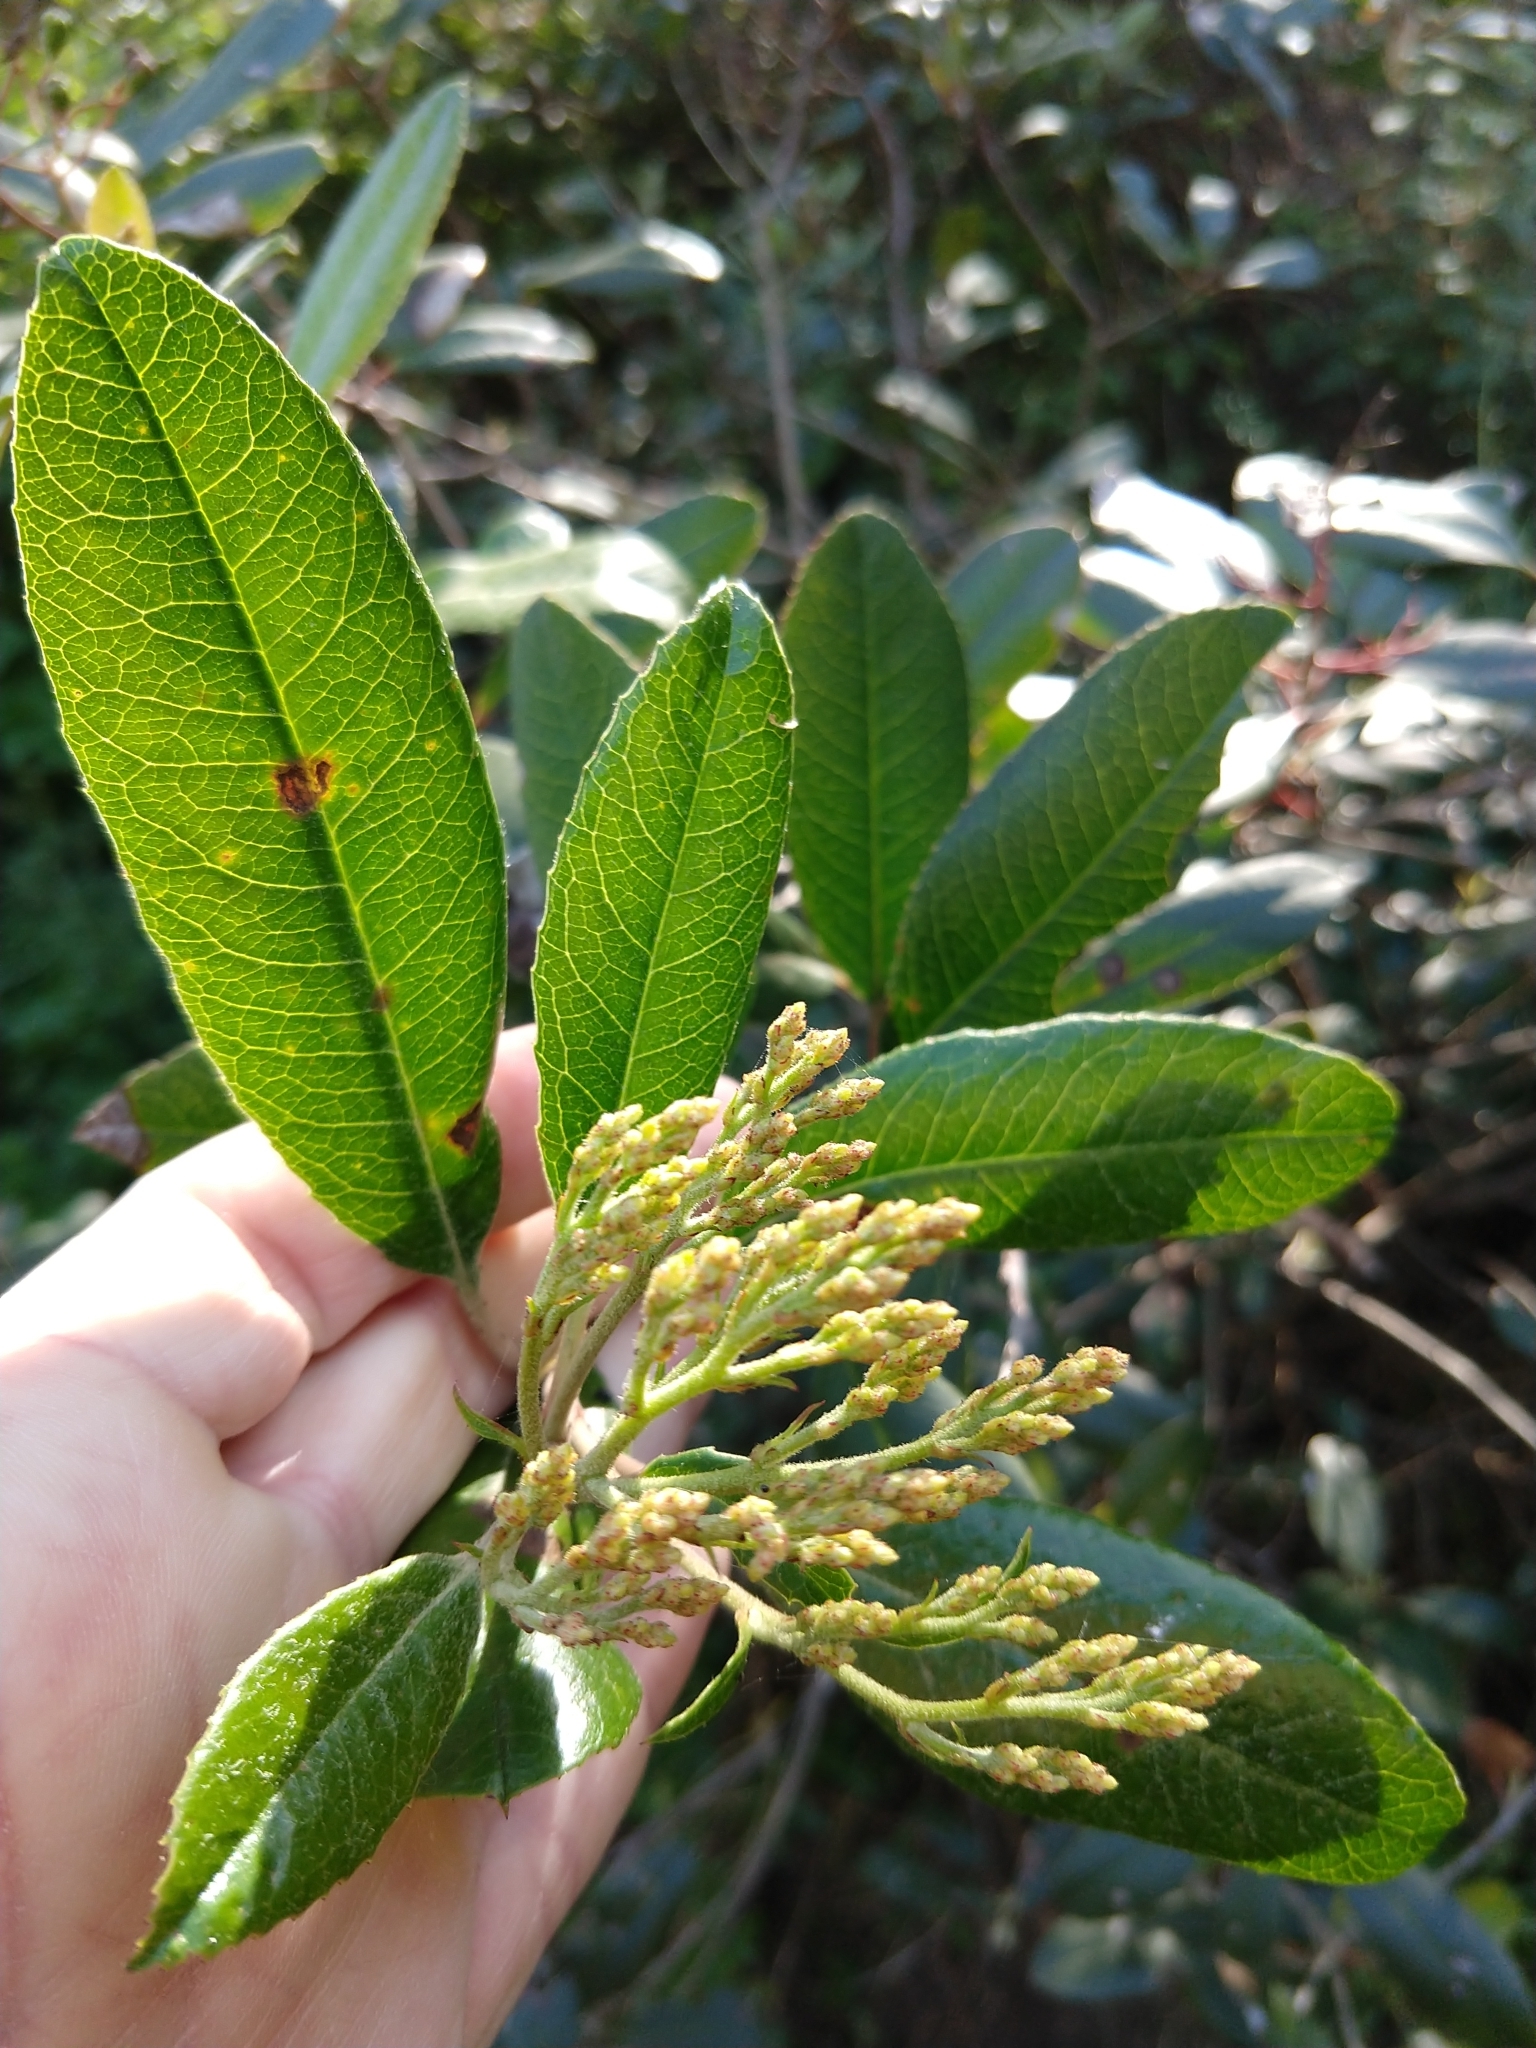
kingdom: Plantae
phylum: Tracheophyta
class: Magnoliopsida
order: Rosales
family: Rosaceae
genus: Heteromeles
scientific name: Heteromeles arbutifolia
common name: California-holly
